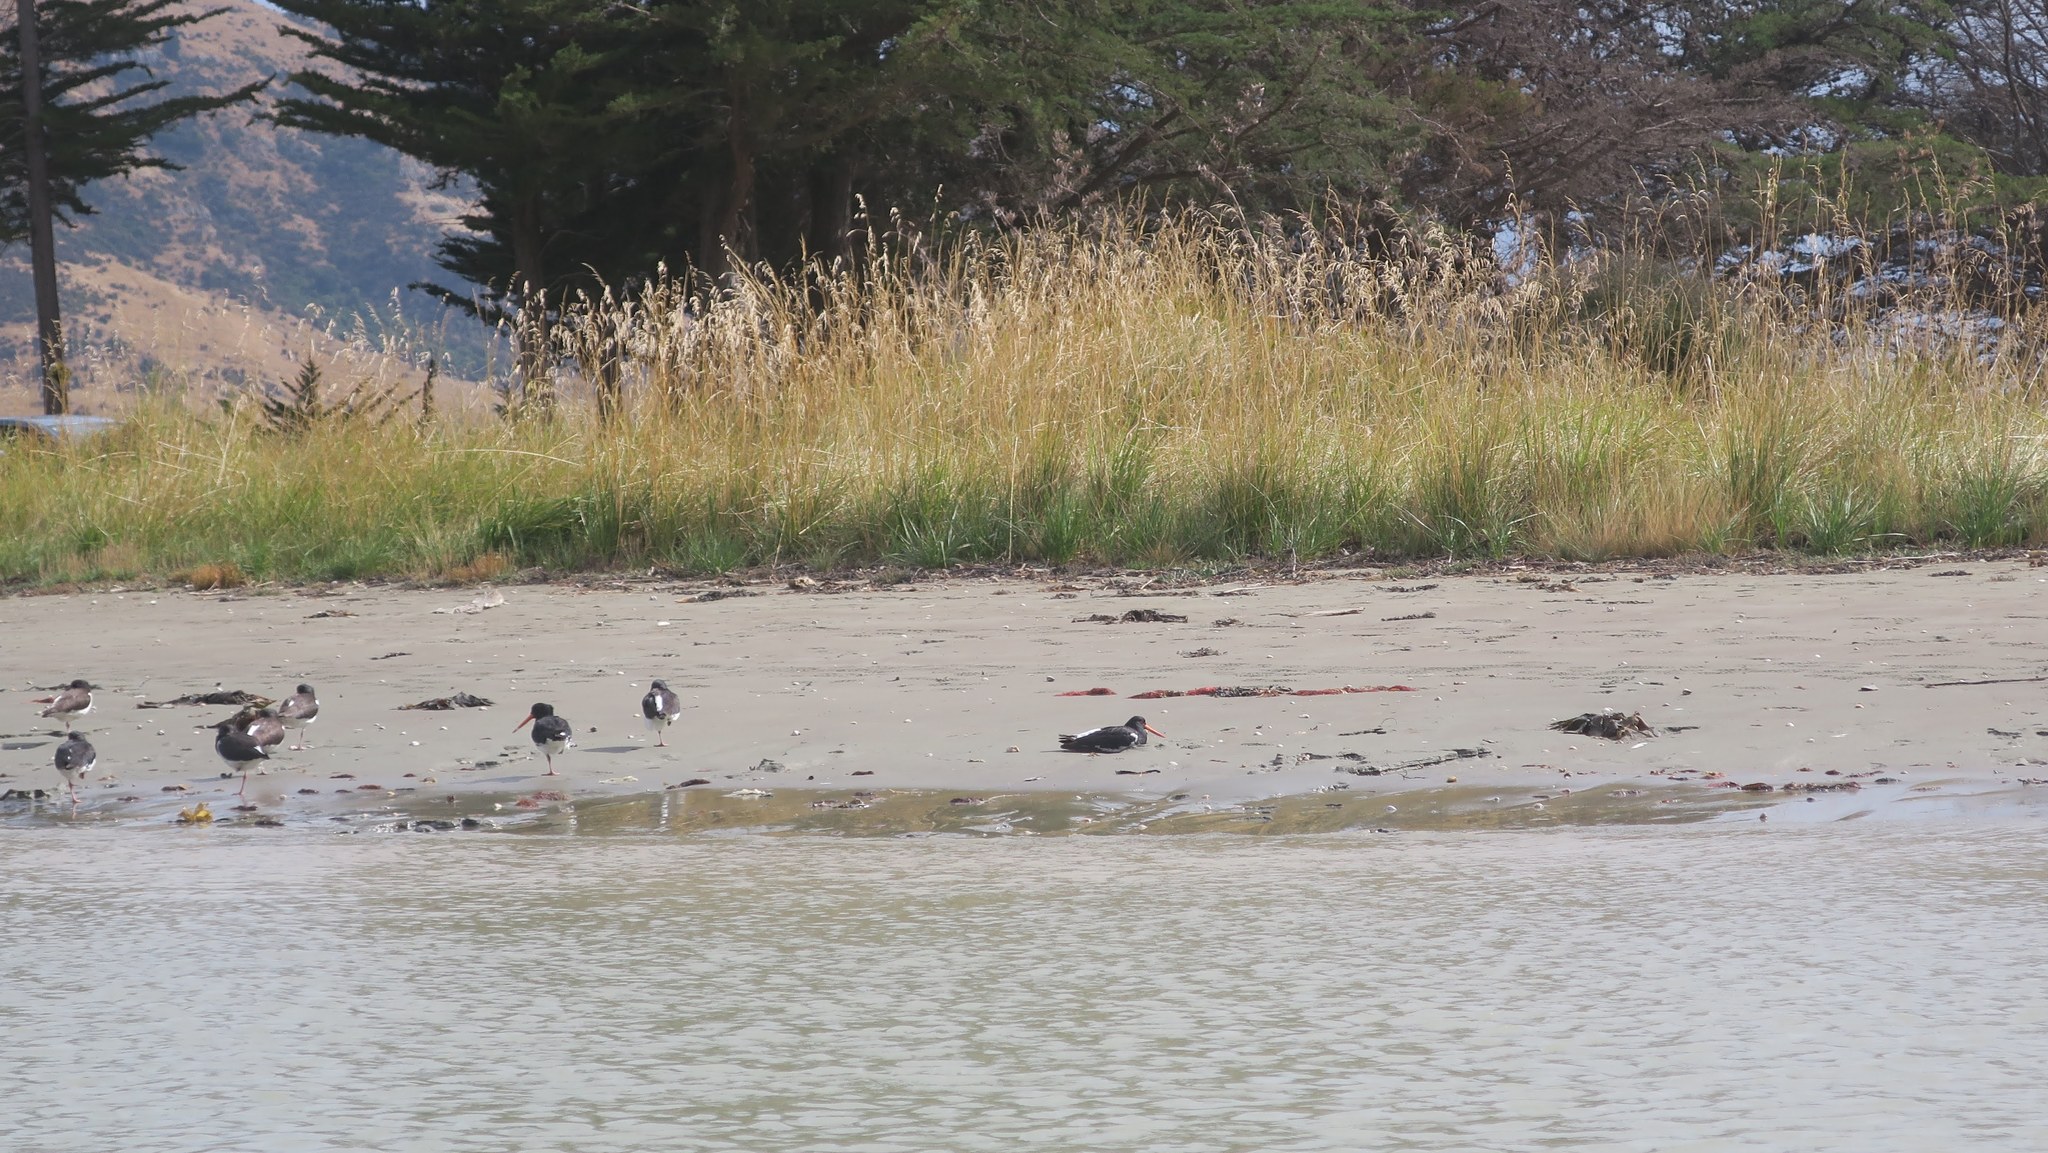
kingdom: Animalia
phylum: Chordata
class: Aves
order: Charadriiformes
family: Haematopodidae
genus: Haematopus
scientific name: Haematopus finschi
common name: South island oystercatcher
